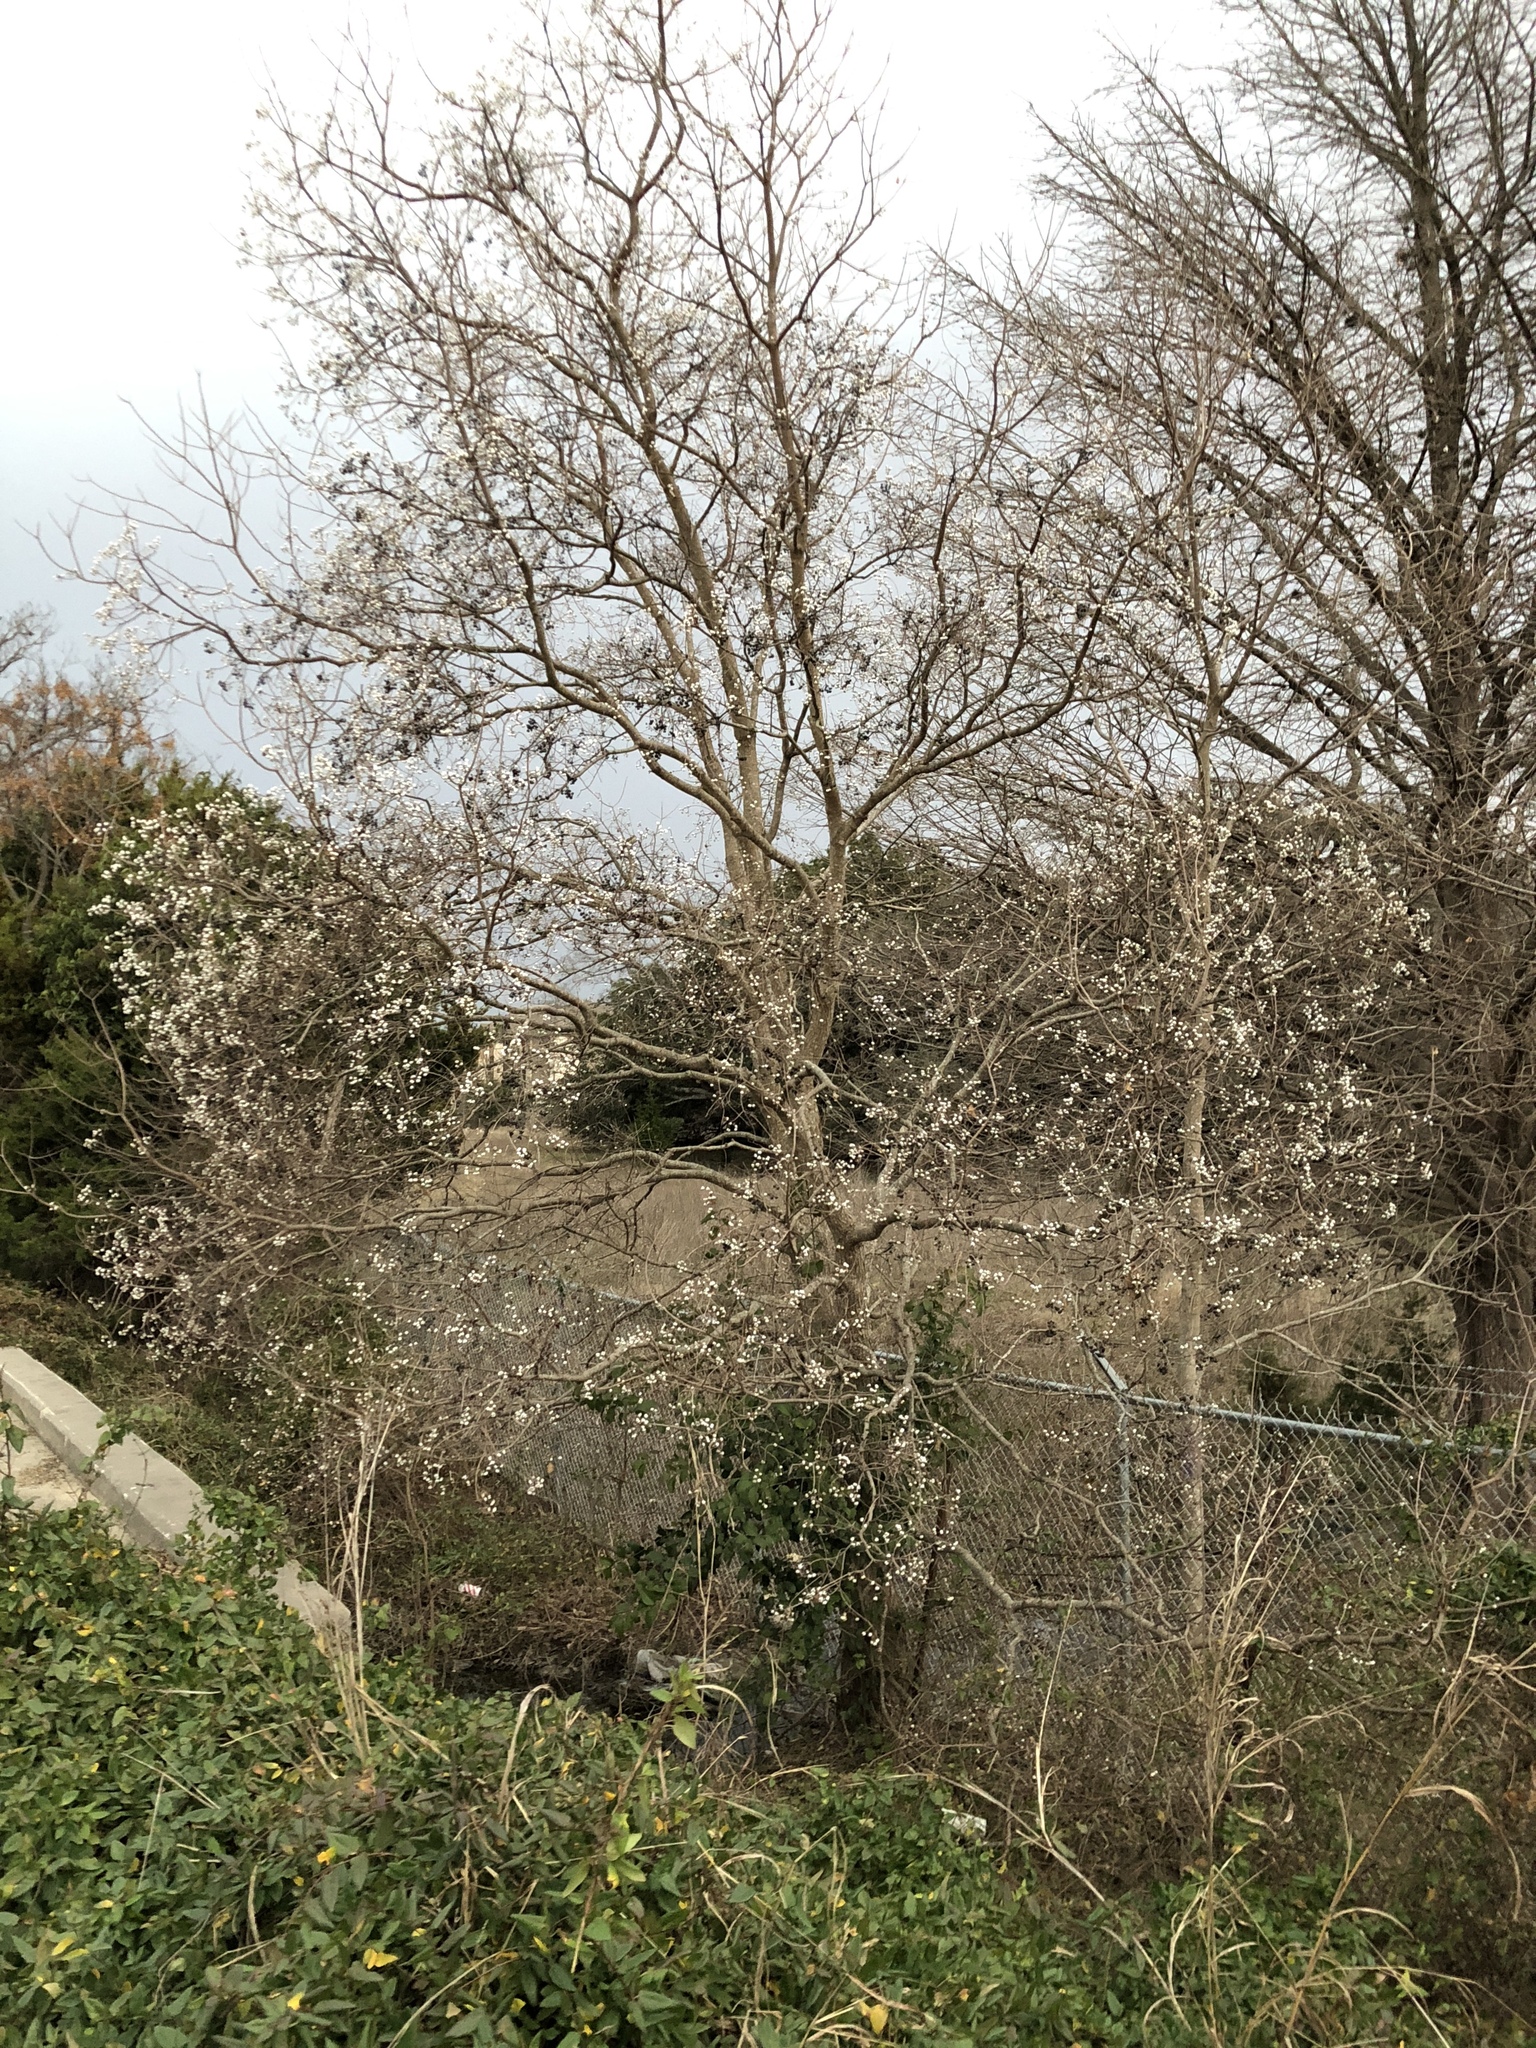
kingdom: Plantae
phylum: Tracheophyta
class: Magnoliopsida
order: Malpighiales
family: Euphorbiaceae
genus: Triadica
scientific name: Triadica sebifera
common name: Chinese tallow
